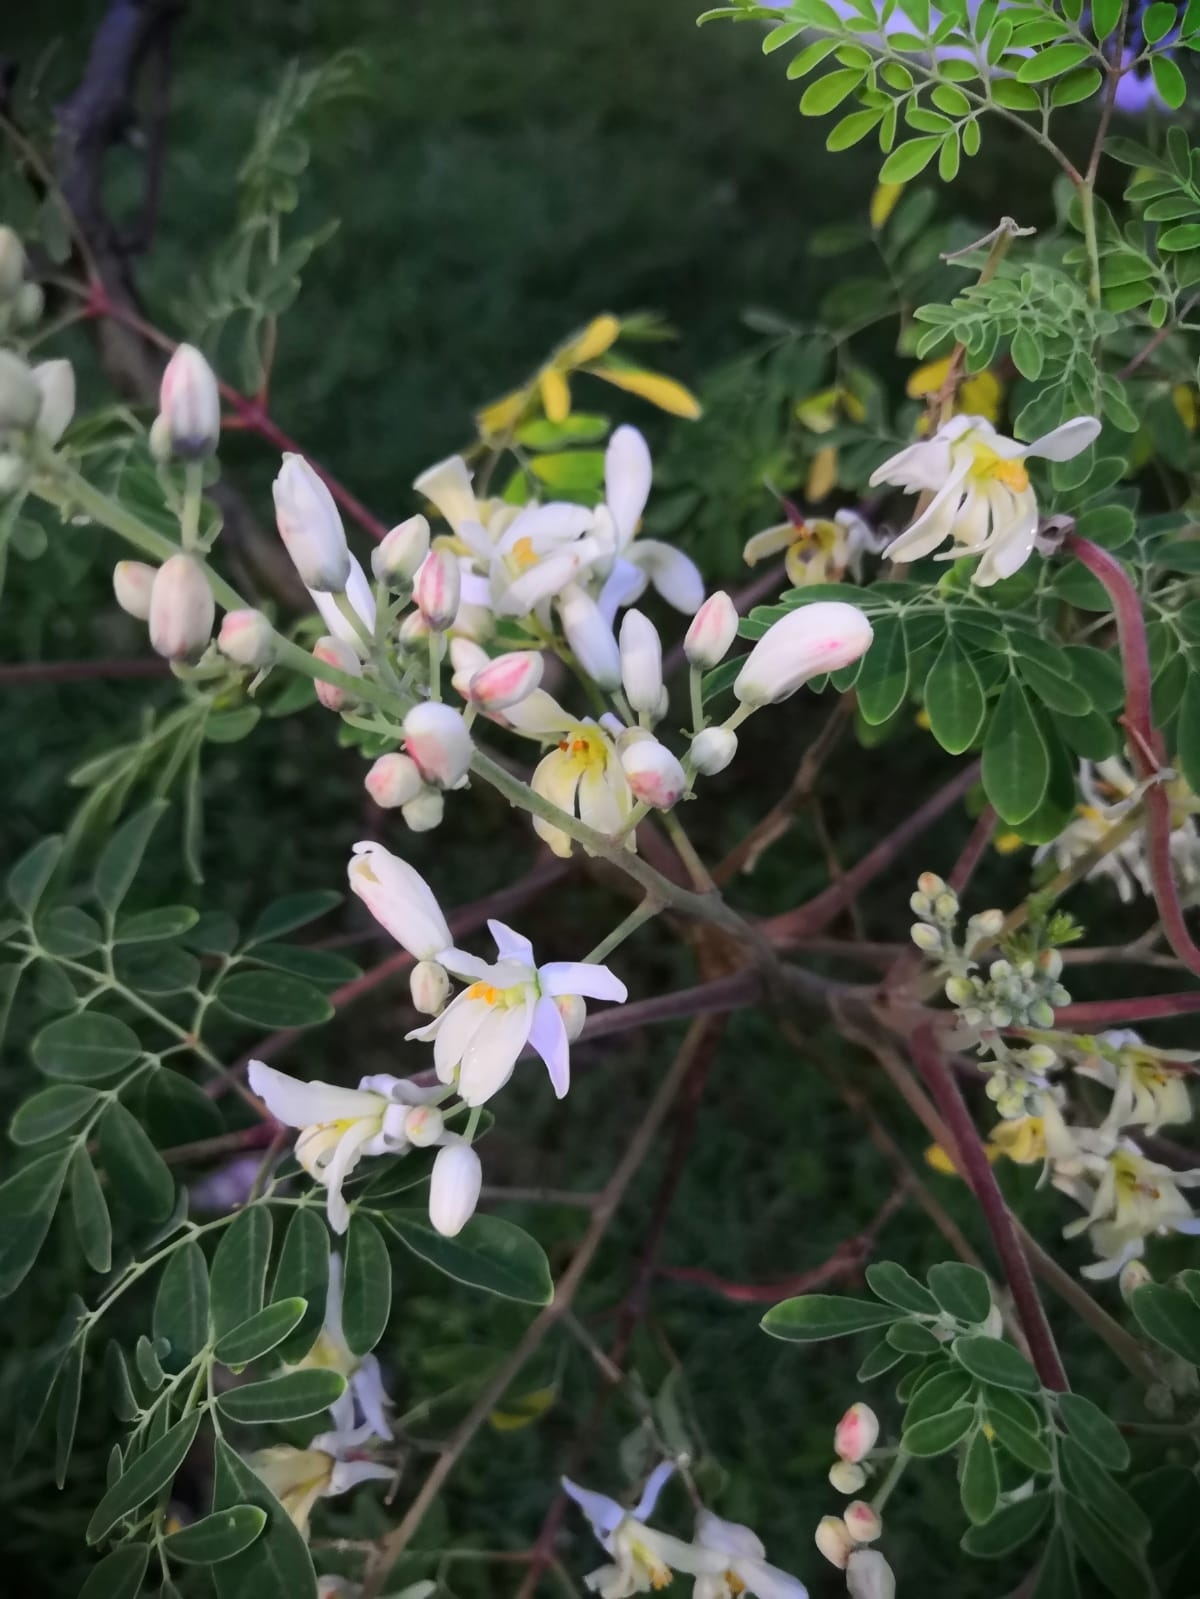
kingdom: Plantae
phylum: Tracheophyta
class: Magnoliopsida
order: Brassicales
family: Moringaceae
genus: Moringa
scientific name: Moringa oleifera
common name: Horseradish-tree
